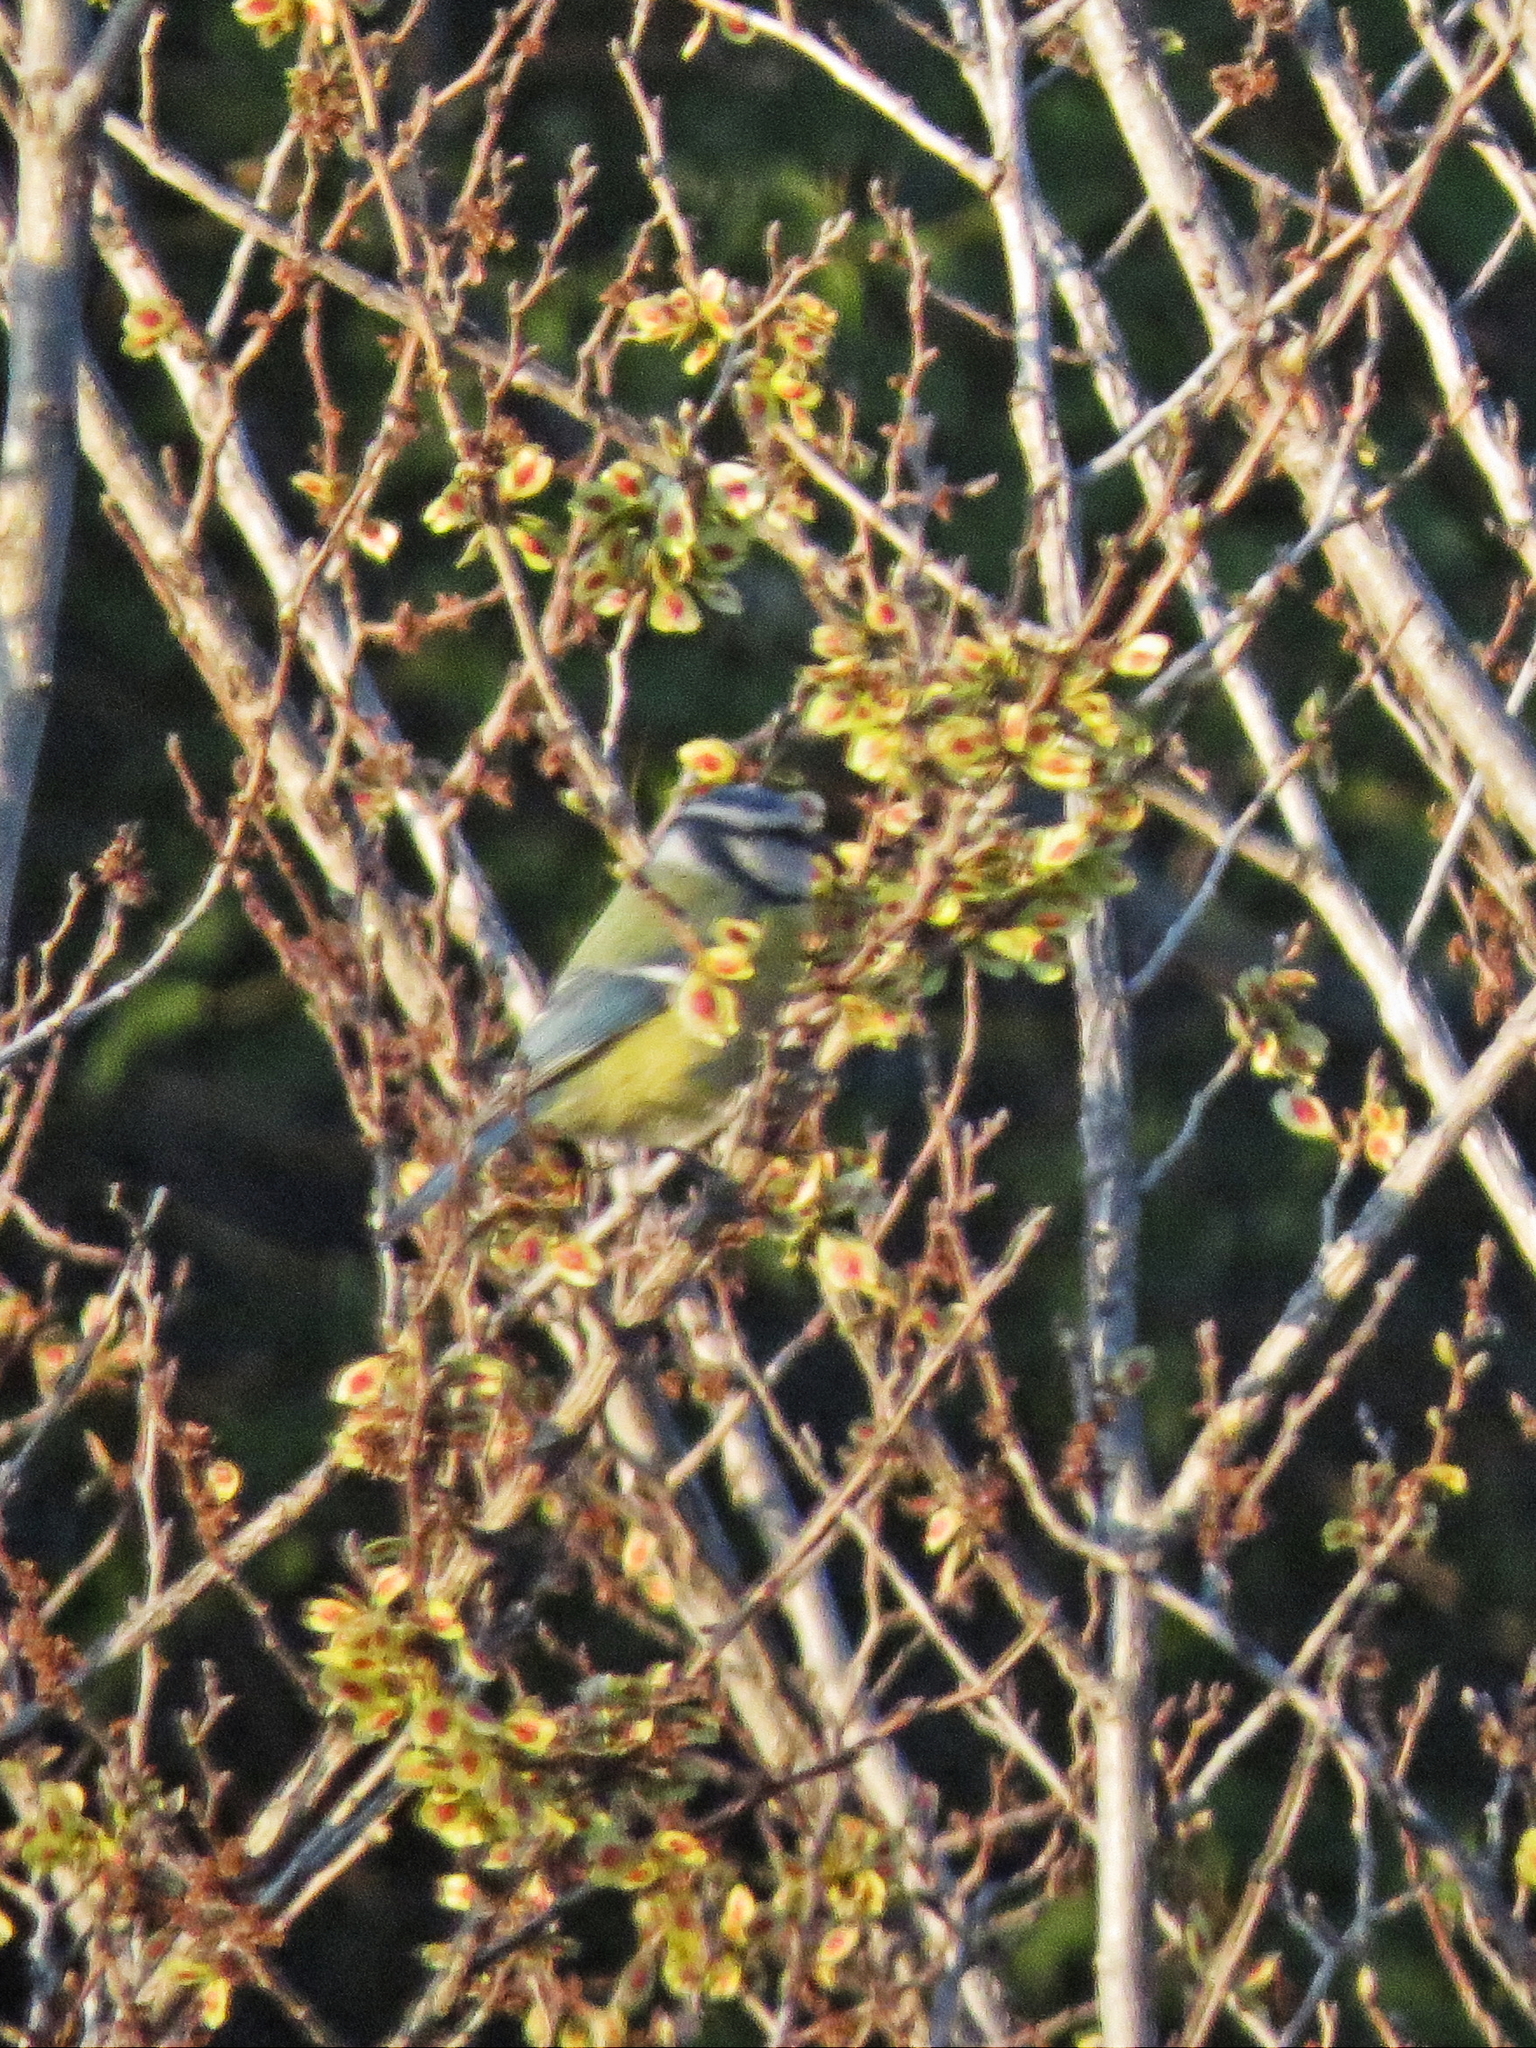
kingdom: Animalia
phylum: Chordata
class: Aves
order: Passeriformes
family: Paridae
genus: Cyanistes
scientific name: Cyanistes caeruleus
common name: Eurasian blue tit
